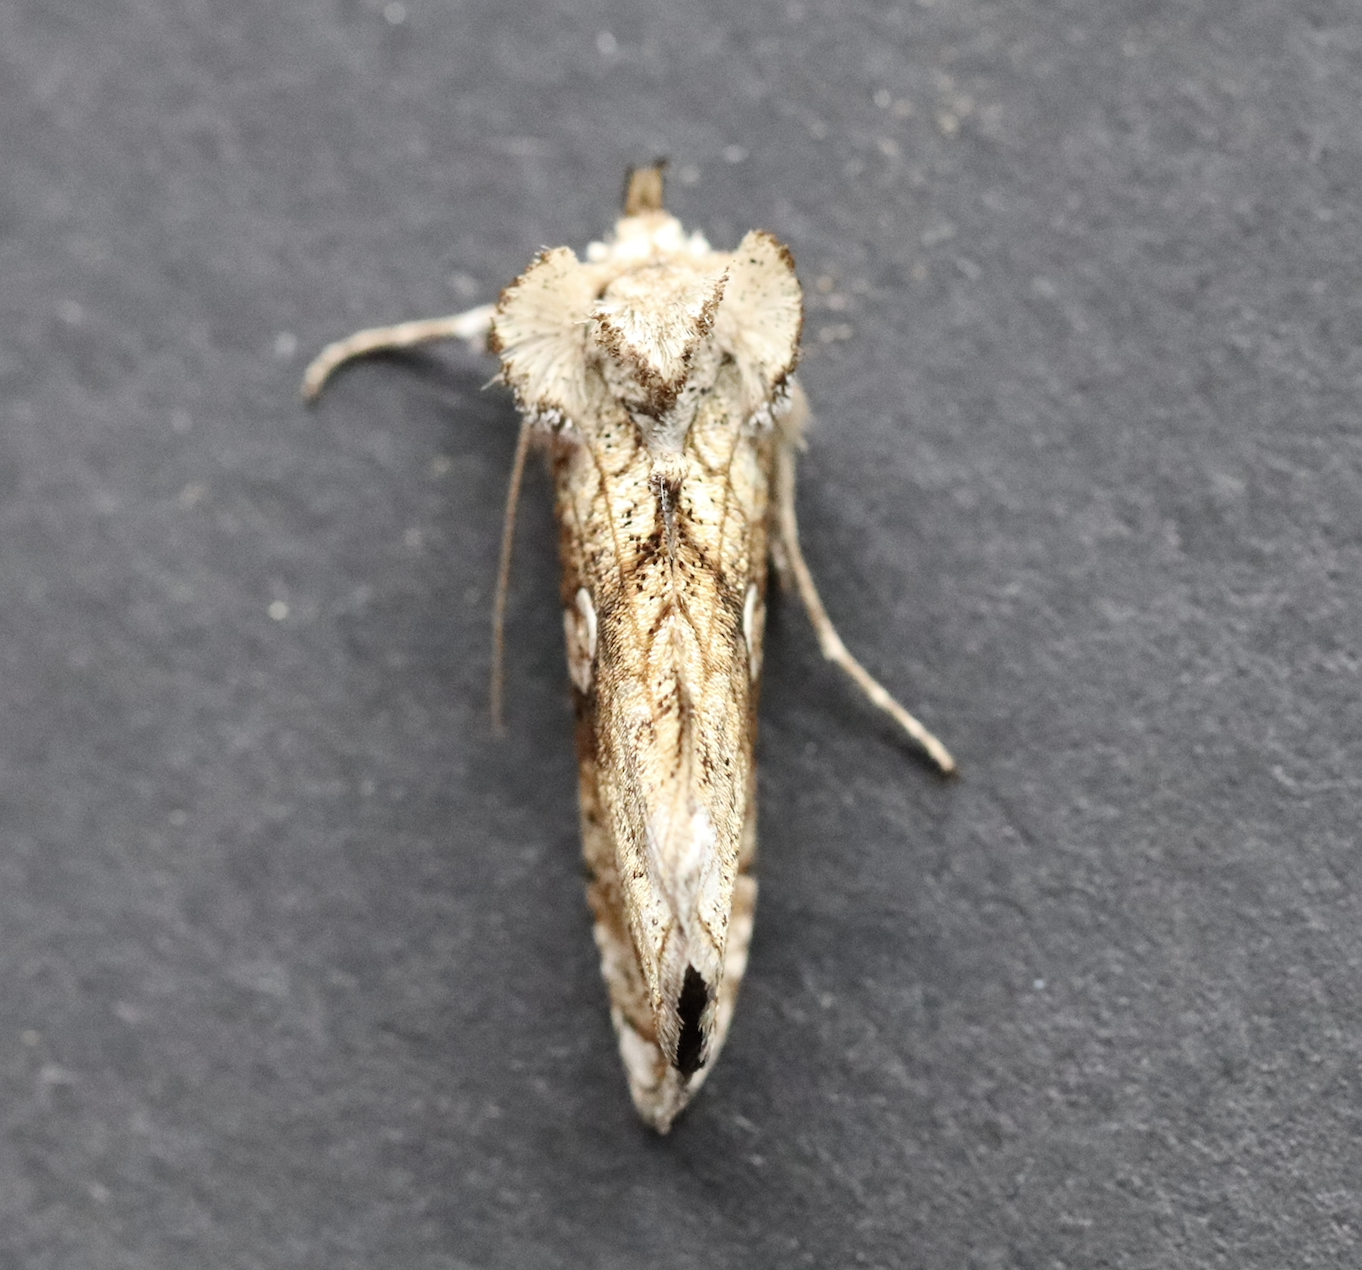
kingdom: Animalia
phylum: Arthropoda
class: Insecta
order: Lepidoptera
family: Noctuidae
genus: Polychrysia
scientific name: Polychrysia esmeralda
